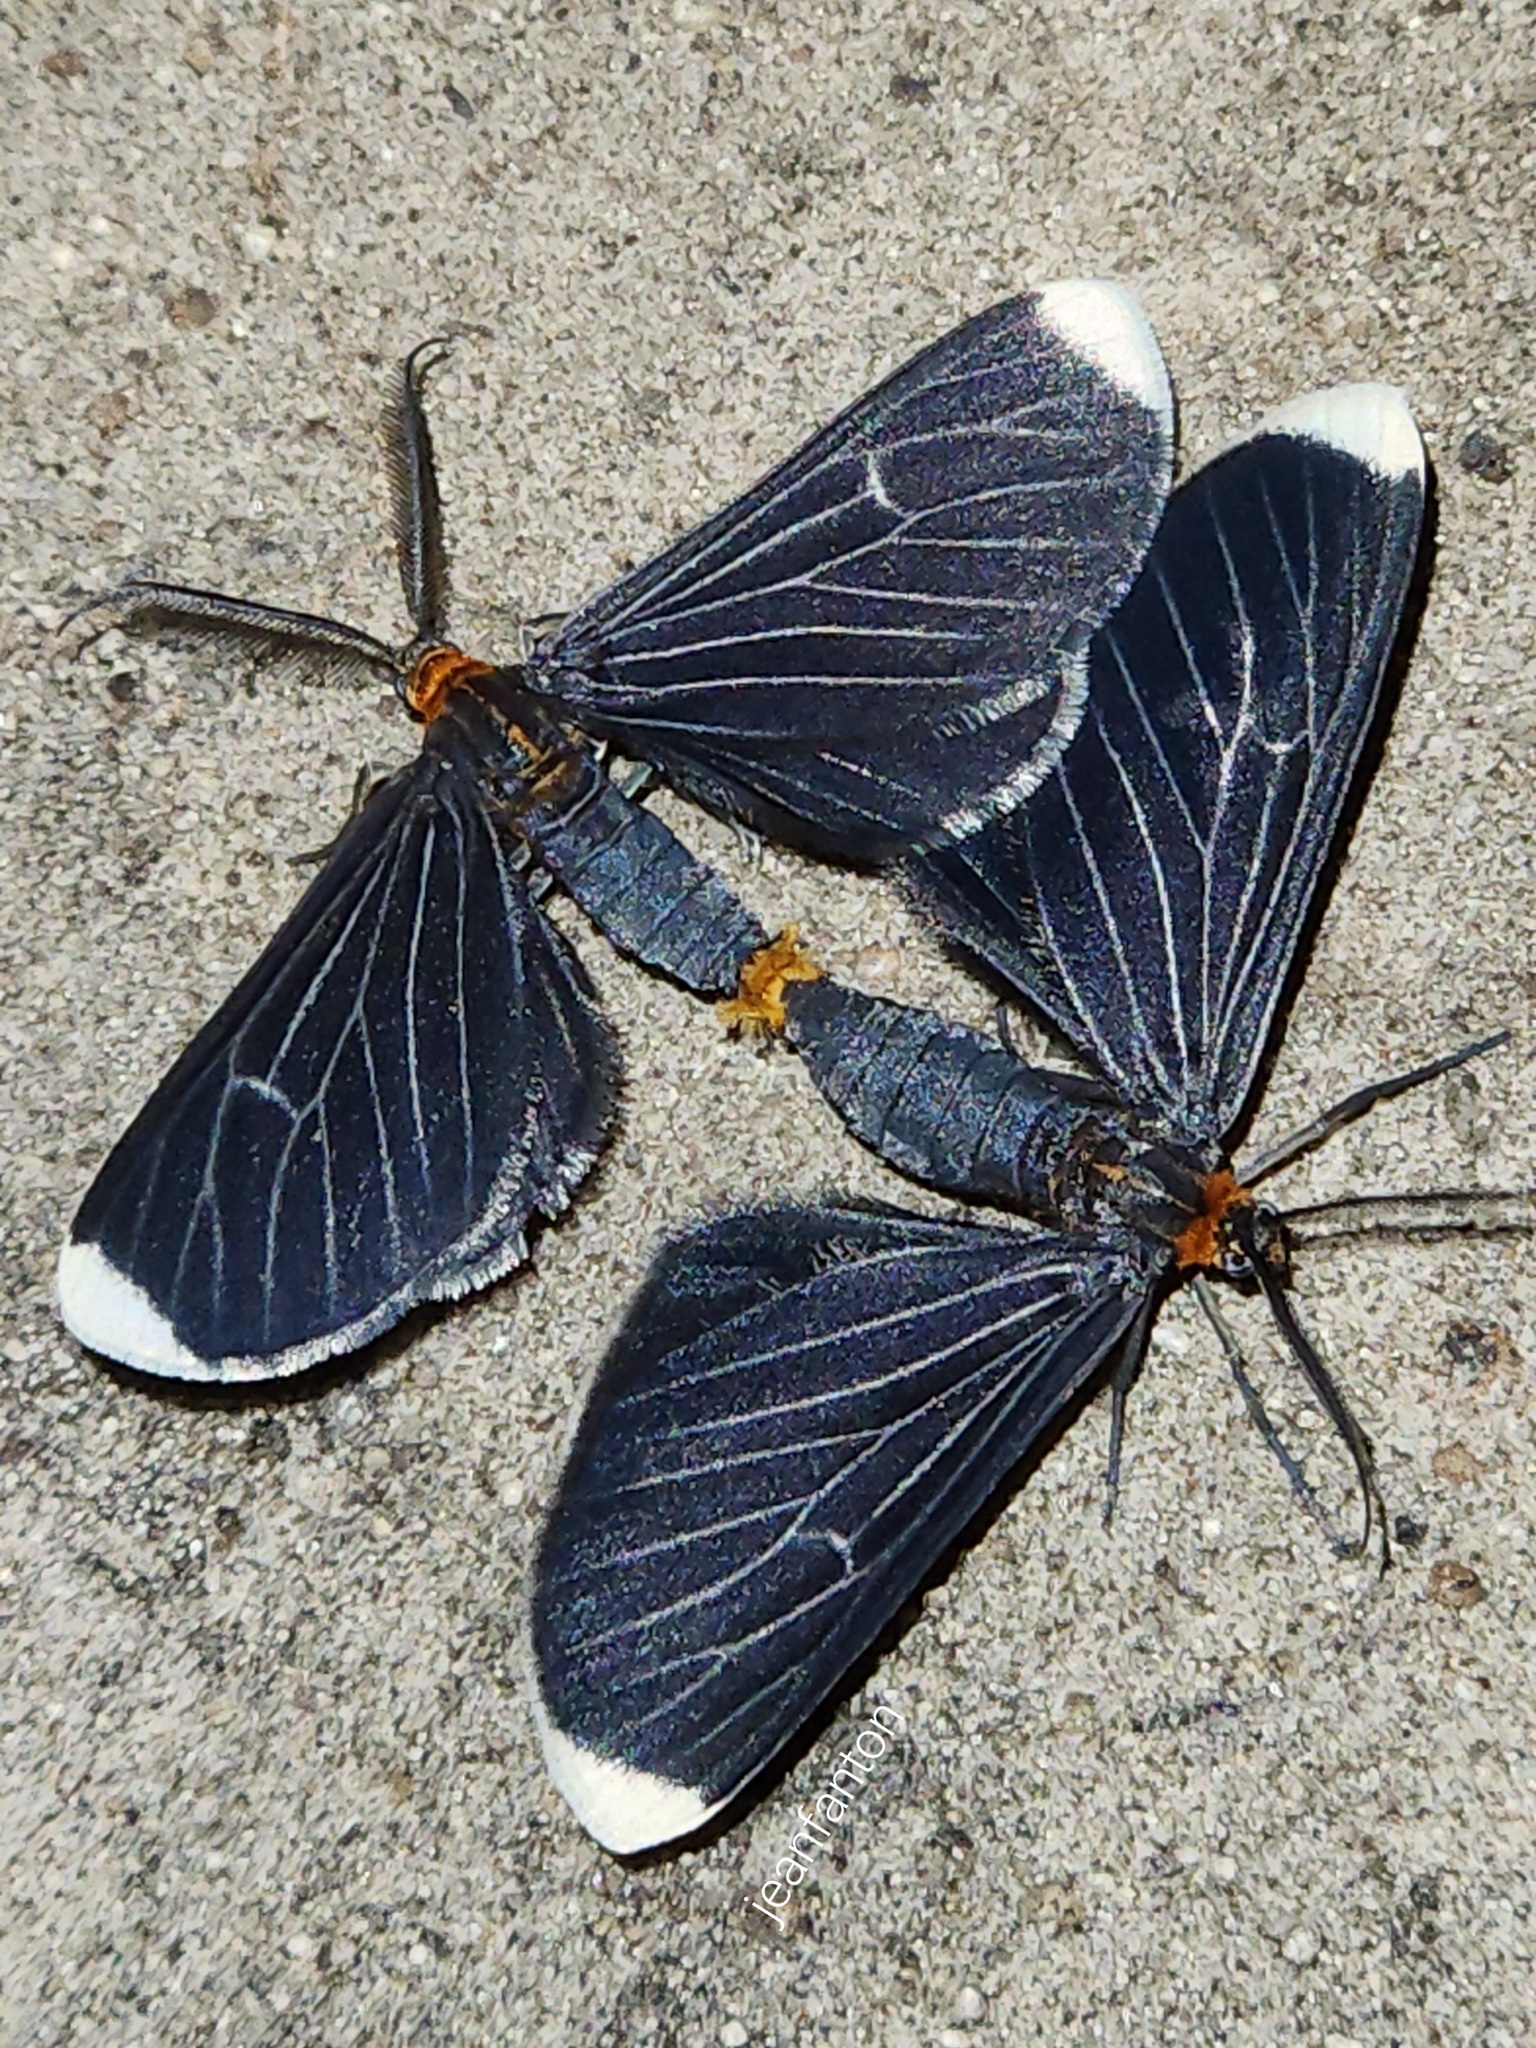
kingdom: Animalia
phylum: Arthropoda
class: Insecta
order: Lepidoptera
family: Geometridae
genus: Melanchroia
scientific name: Melanchroia chephise
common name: White-tipped black
